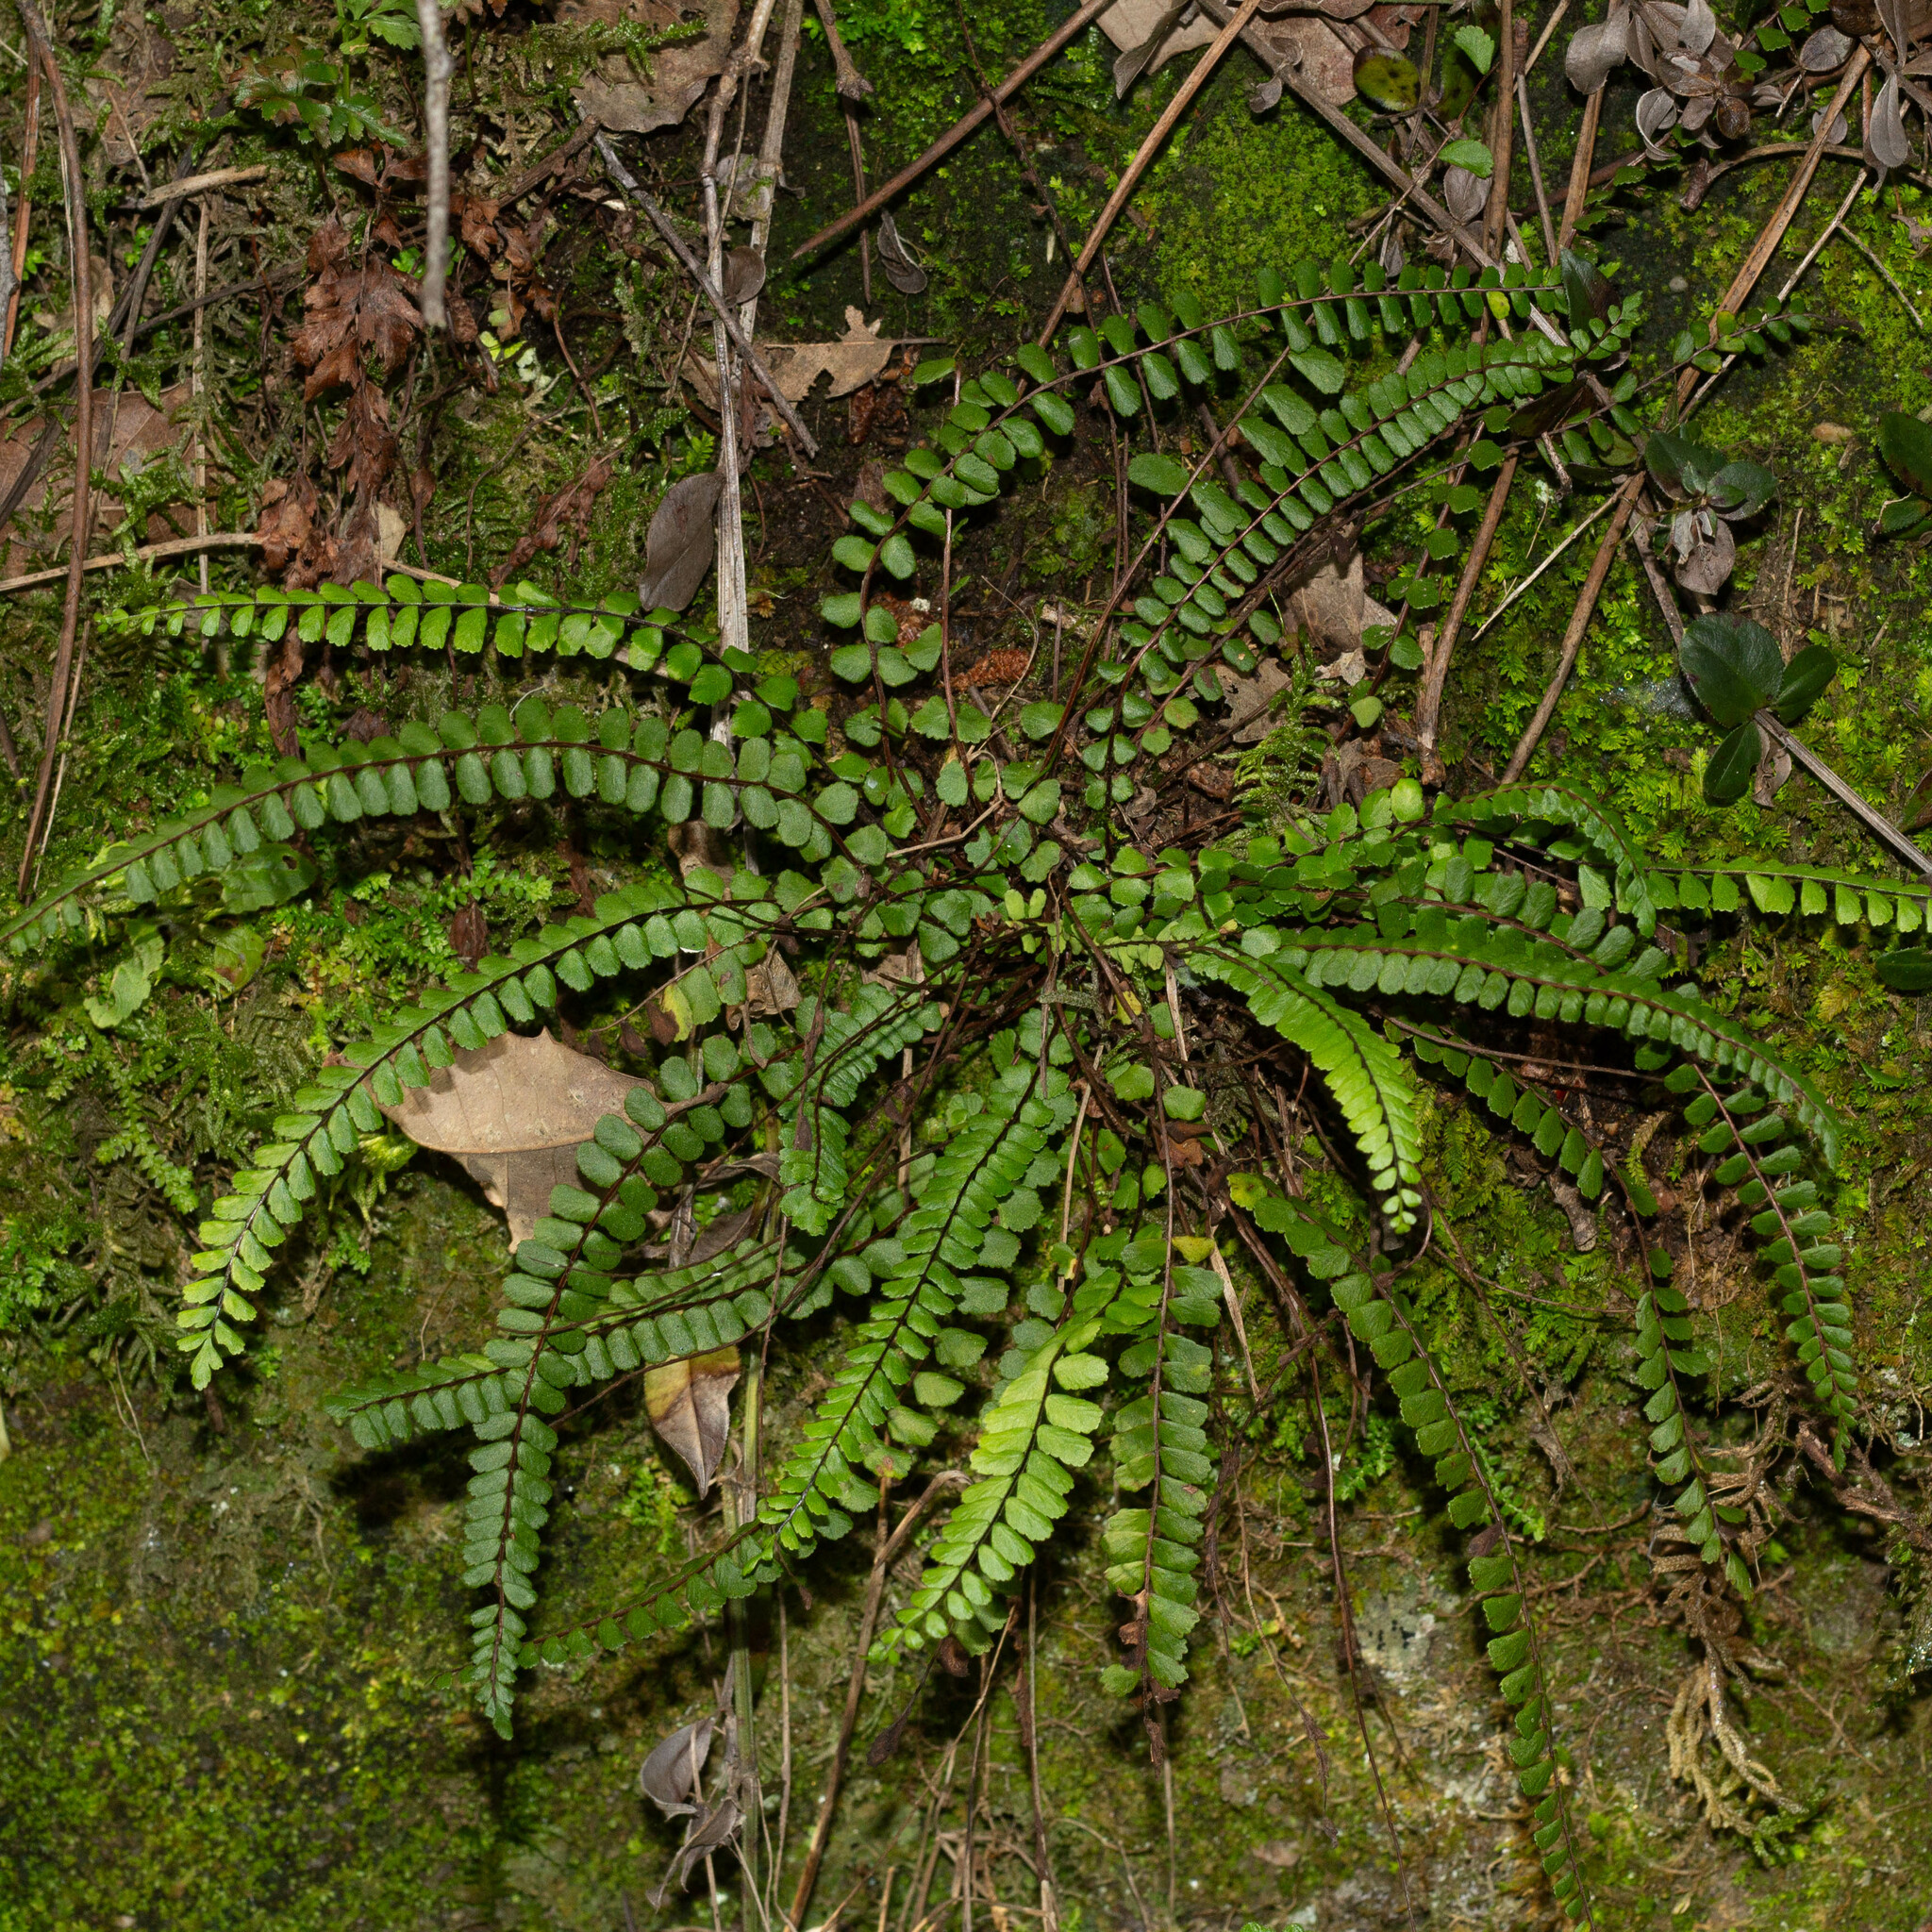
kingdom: Plantae
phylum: Tracheophyta
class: Polypodiopsida
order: Polypodiales
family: Aspleniaceae
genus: Asplenium
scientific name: Asplenium trichomanes
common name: Maidenhair spleenwort
